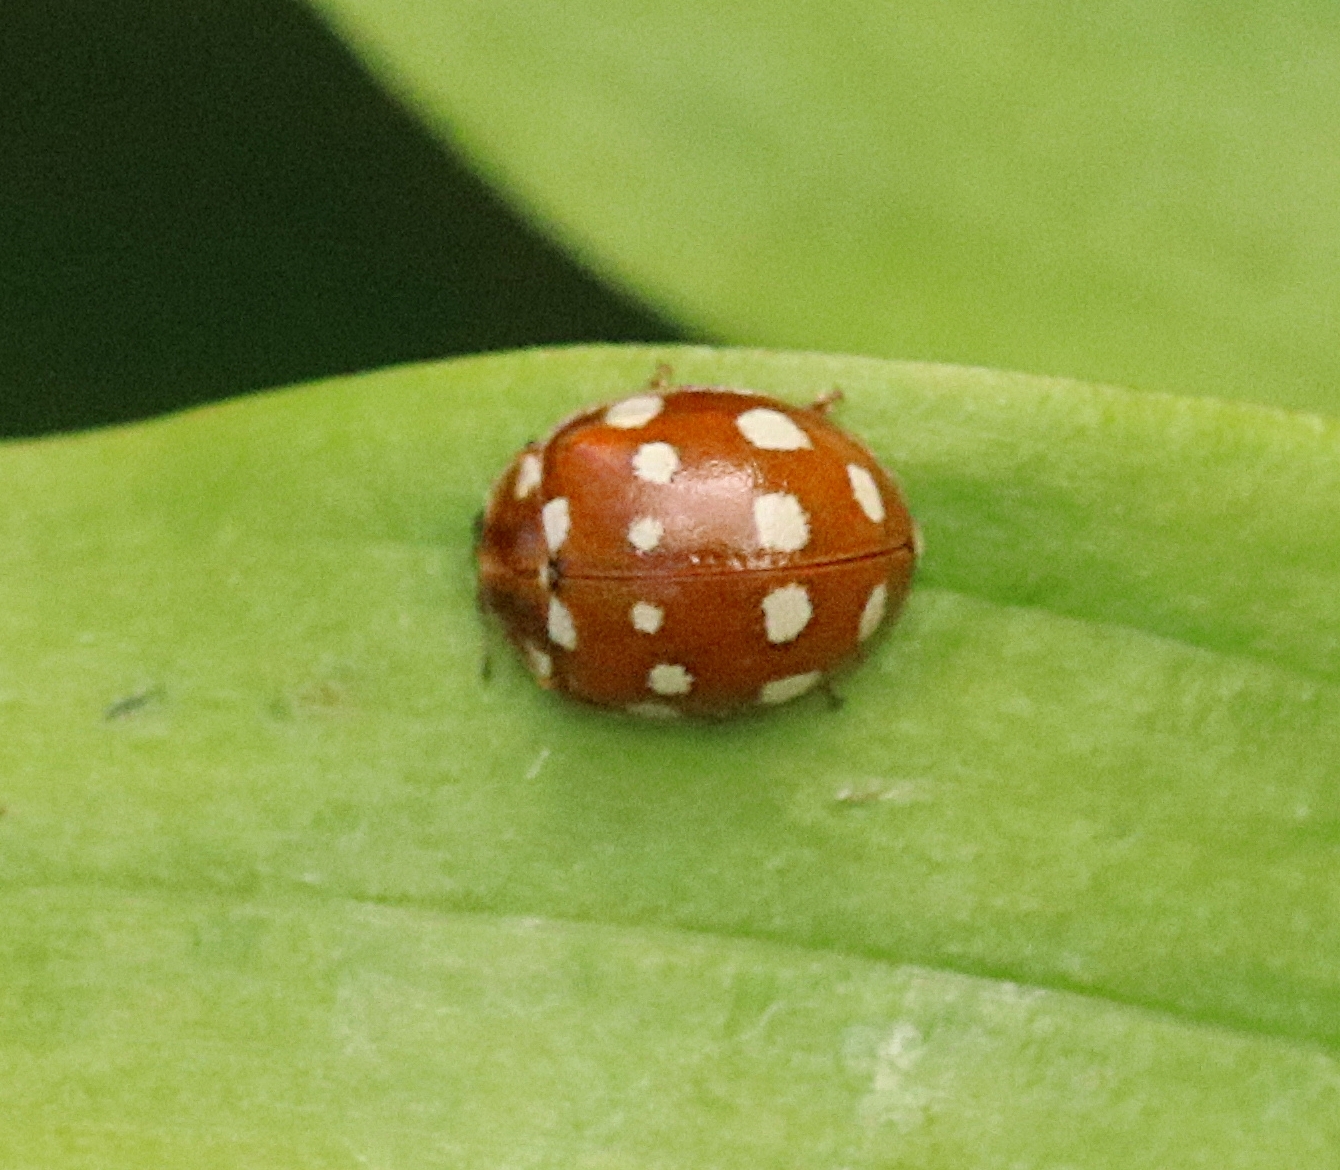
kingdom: Animalia
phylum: Arthropoda
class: Insecta
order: Coleoptera
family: Coccinellidae
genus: Calvia
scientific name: Calvia quatuordecimguttata
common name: Cream-spot ladybird
